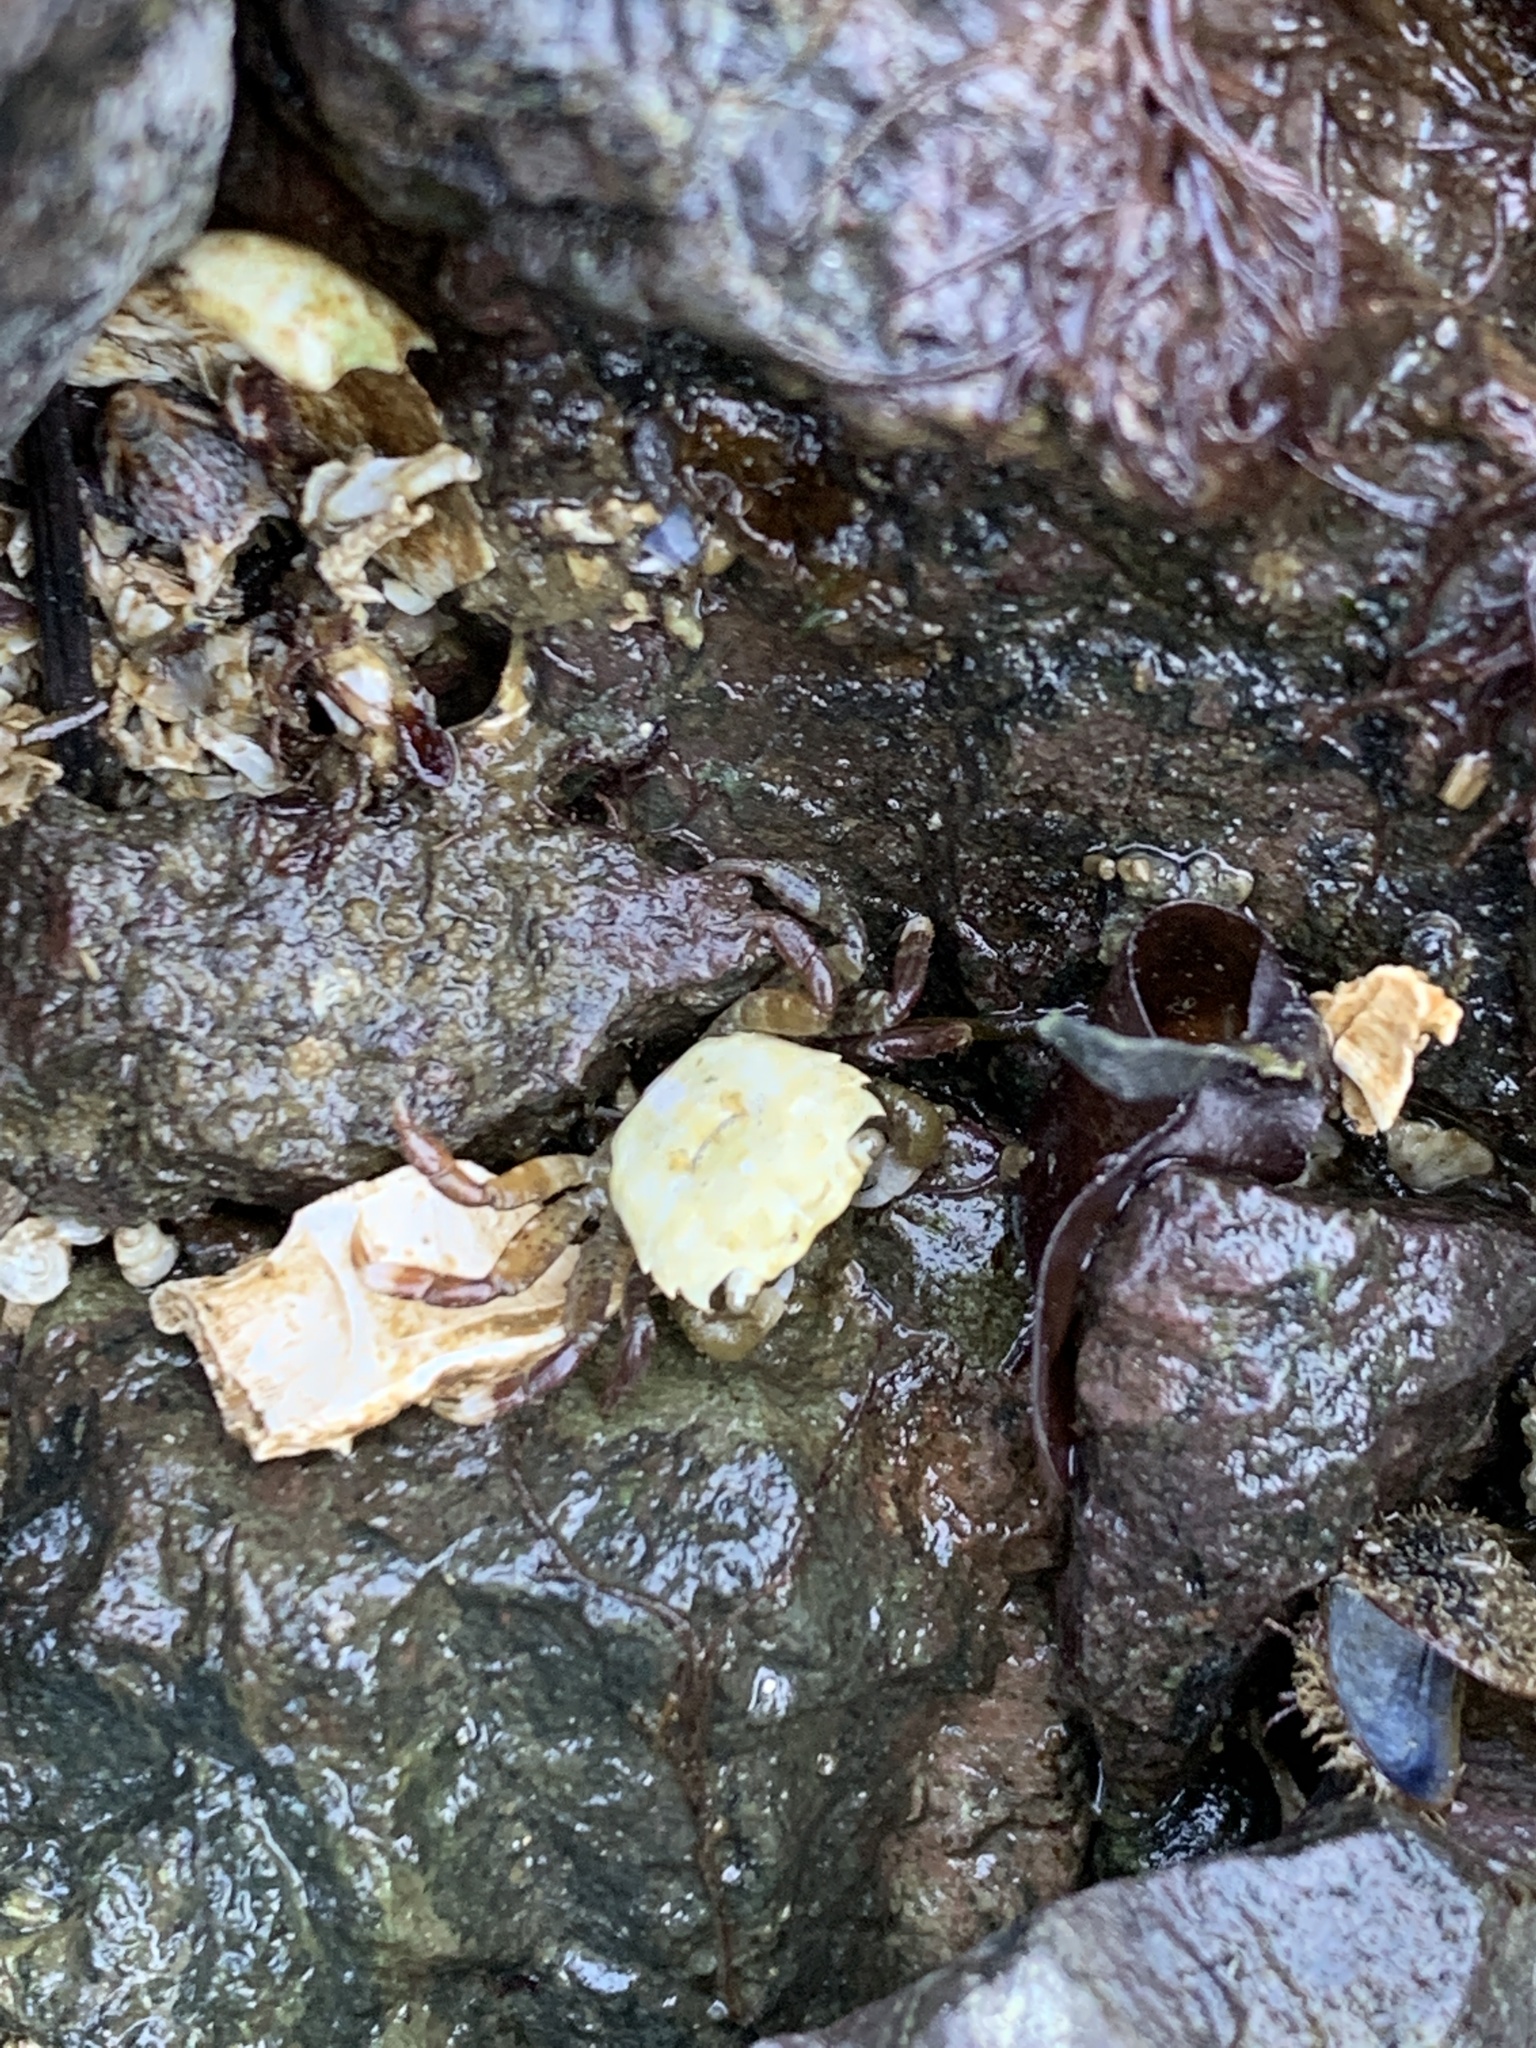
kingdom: Animalia
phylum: Arthropoda
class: Malacostraca
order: Decapoda
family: Varunidae
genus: Hemigrapsus
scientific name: Hemigrapsus oregonensis
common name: Yellow shore crab
